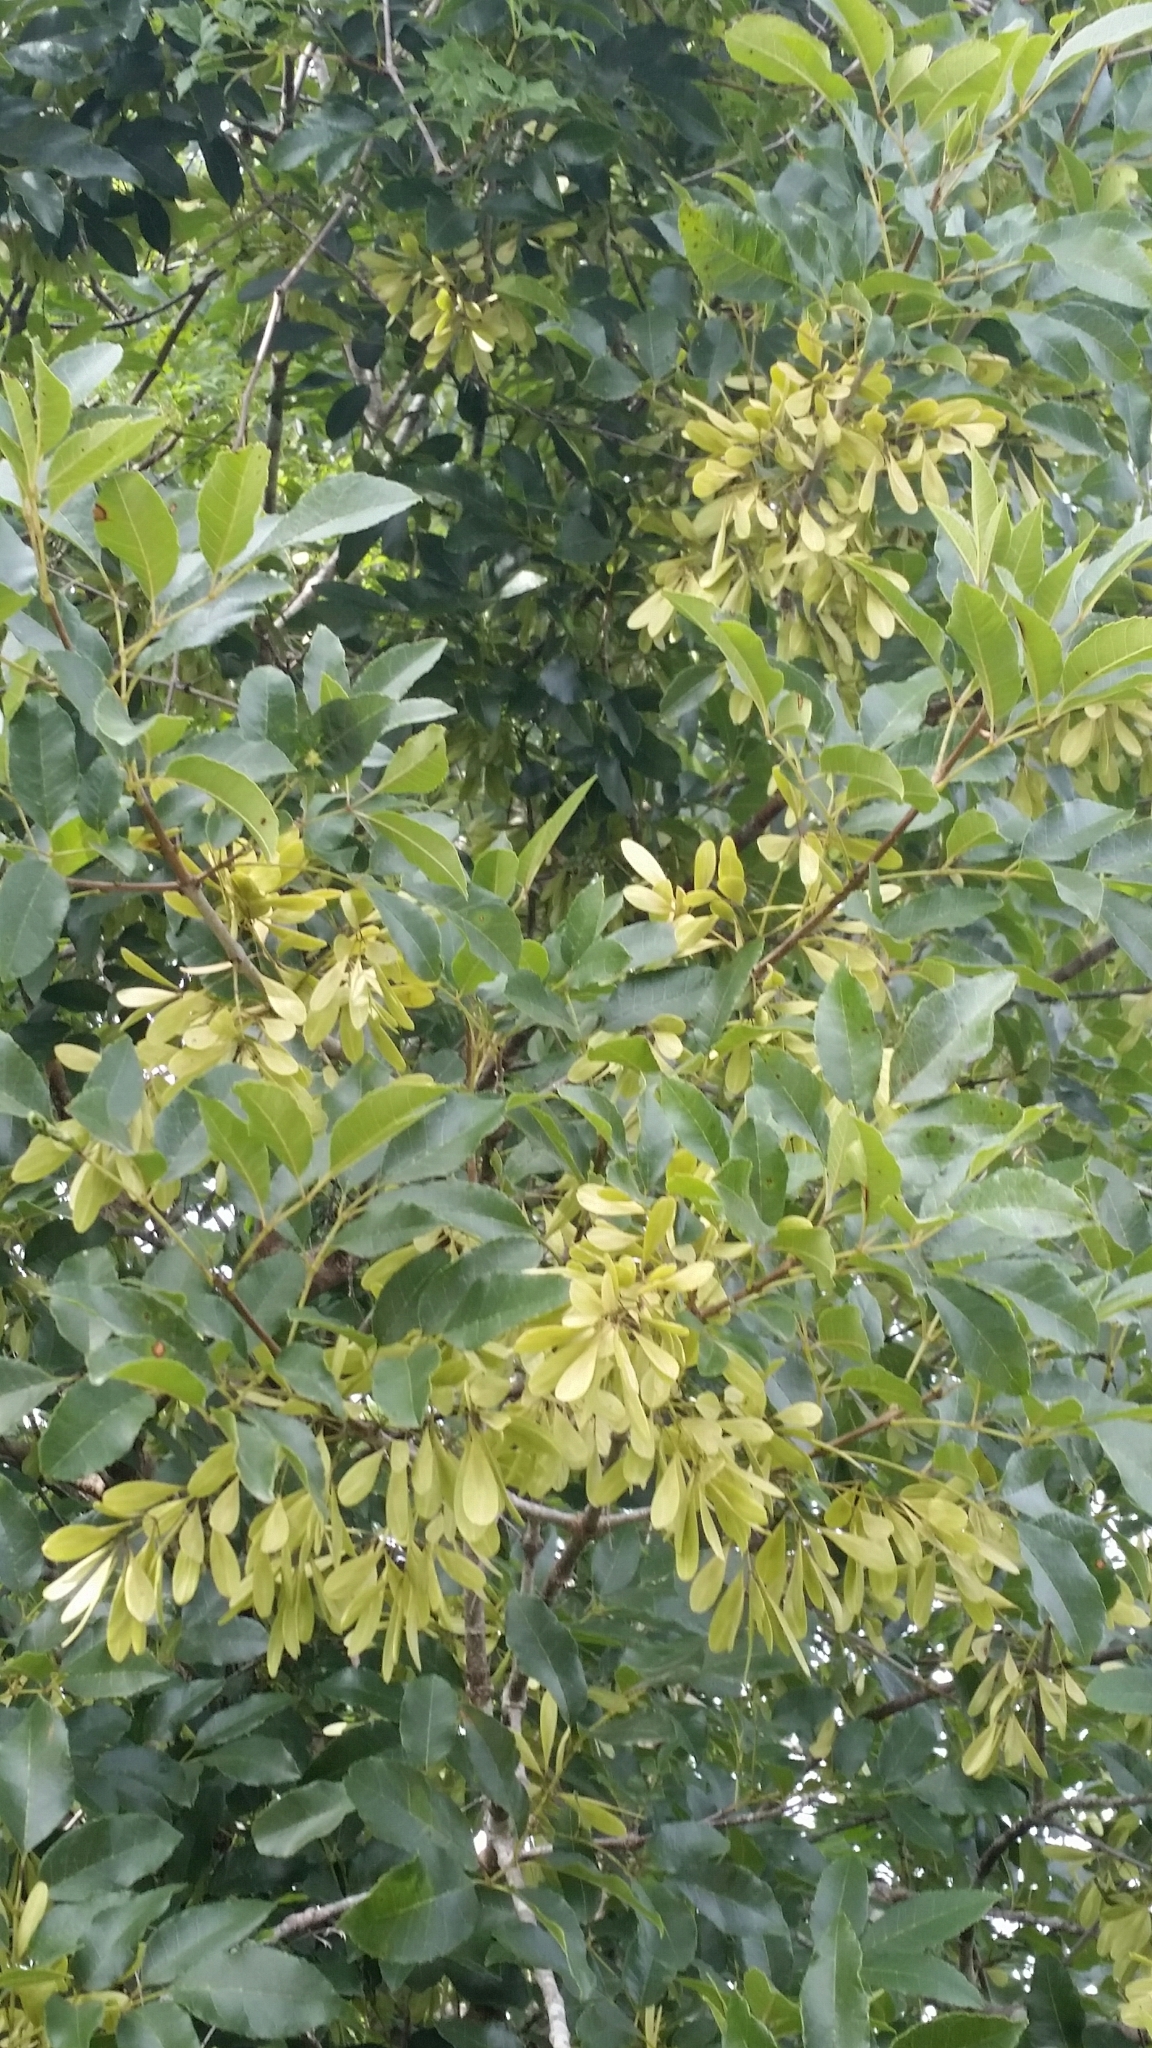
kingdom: Plantae
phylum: Tracheophyta
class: Magnoliopsida
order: Lamiales
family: Oleaceae
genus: Fraxinus
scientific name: Fraxinus caroliniana
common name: Carolina ash
